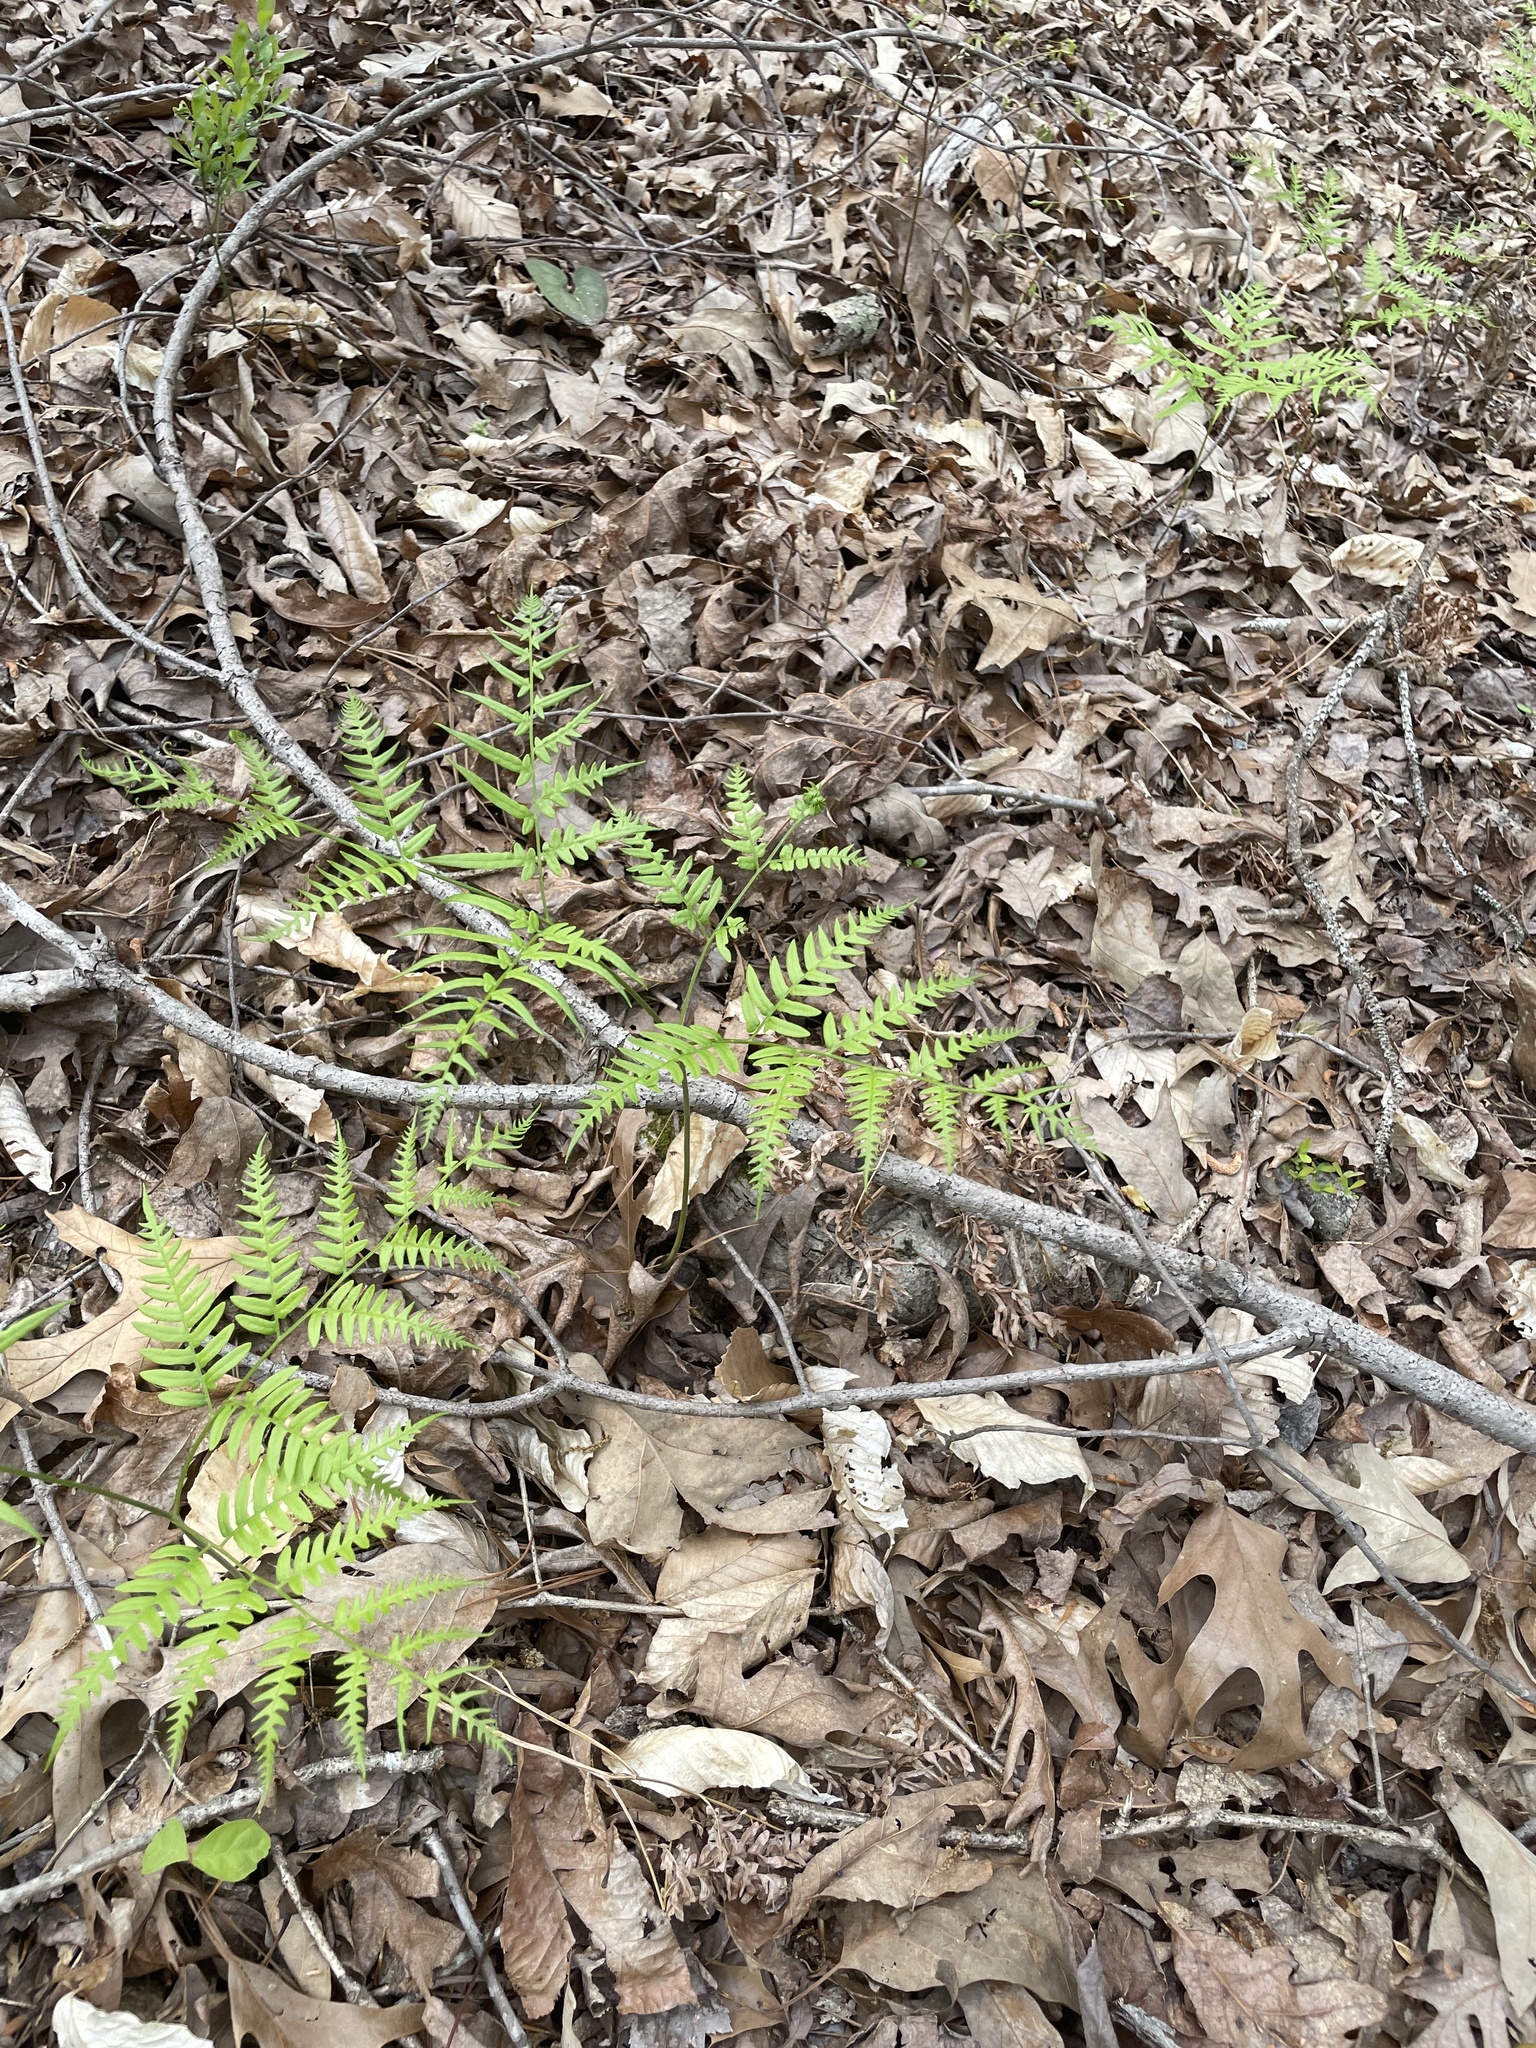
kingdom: Plantae
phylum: Tracheophyta
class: Polypodiopsida
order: Polypodiales
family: Dennstaedtiaceae
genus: Pteridium
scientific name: Pteridium
